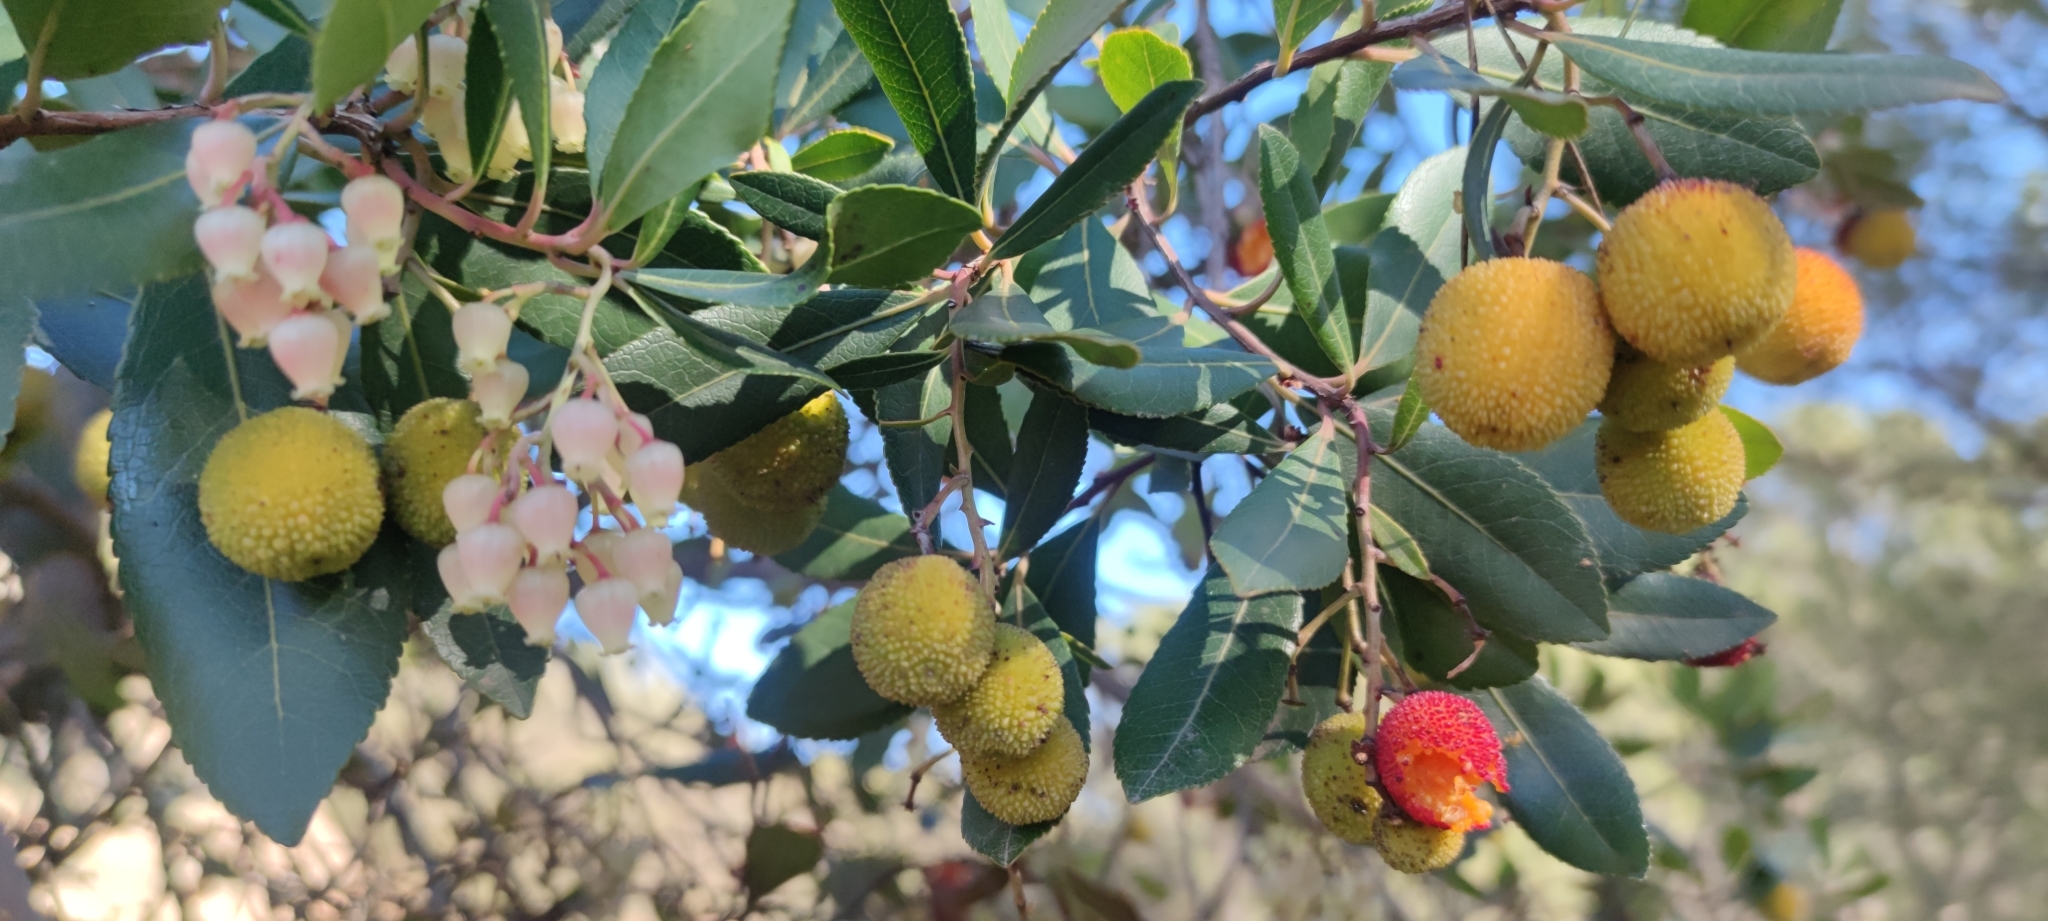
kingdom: Plantae
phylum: Tracheophyta
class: Magnoliopsida
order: Ericales
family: Ericaceae
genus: Arbutus
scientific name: Arbutus unedo
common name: Strawberry-tree
